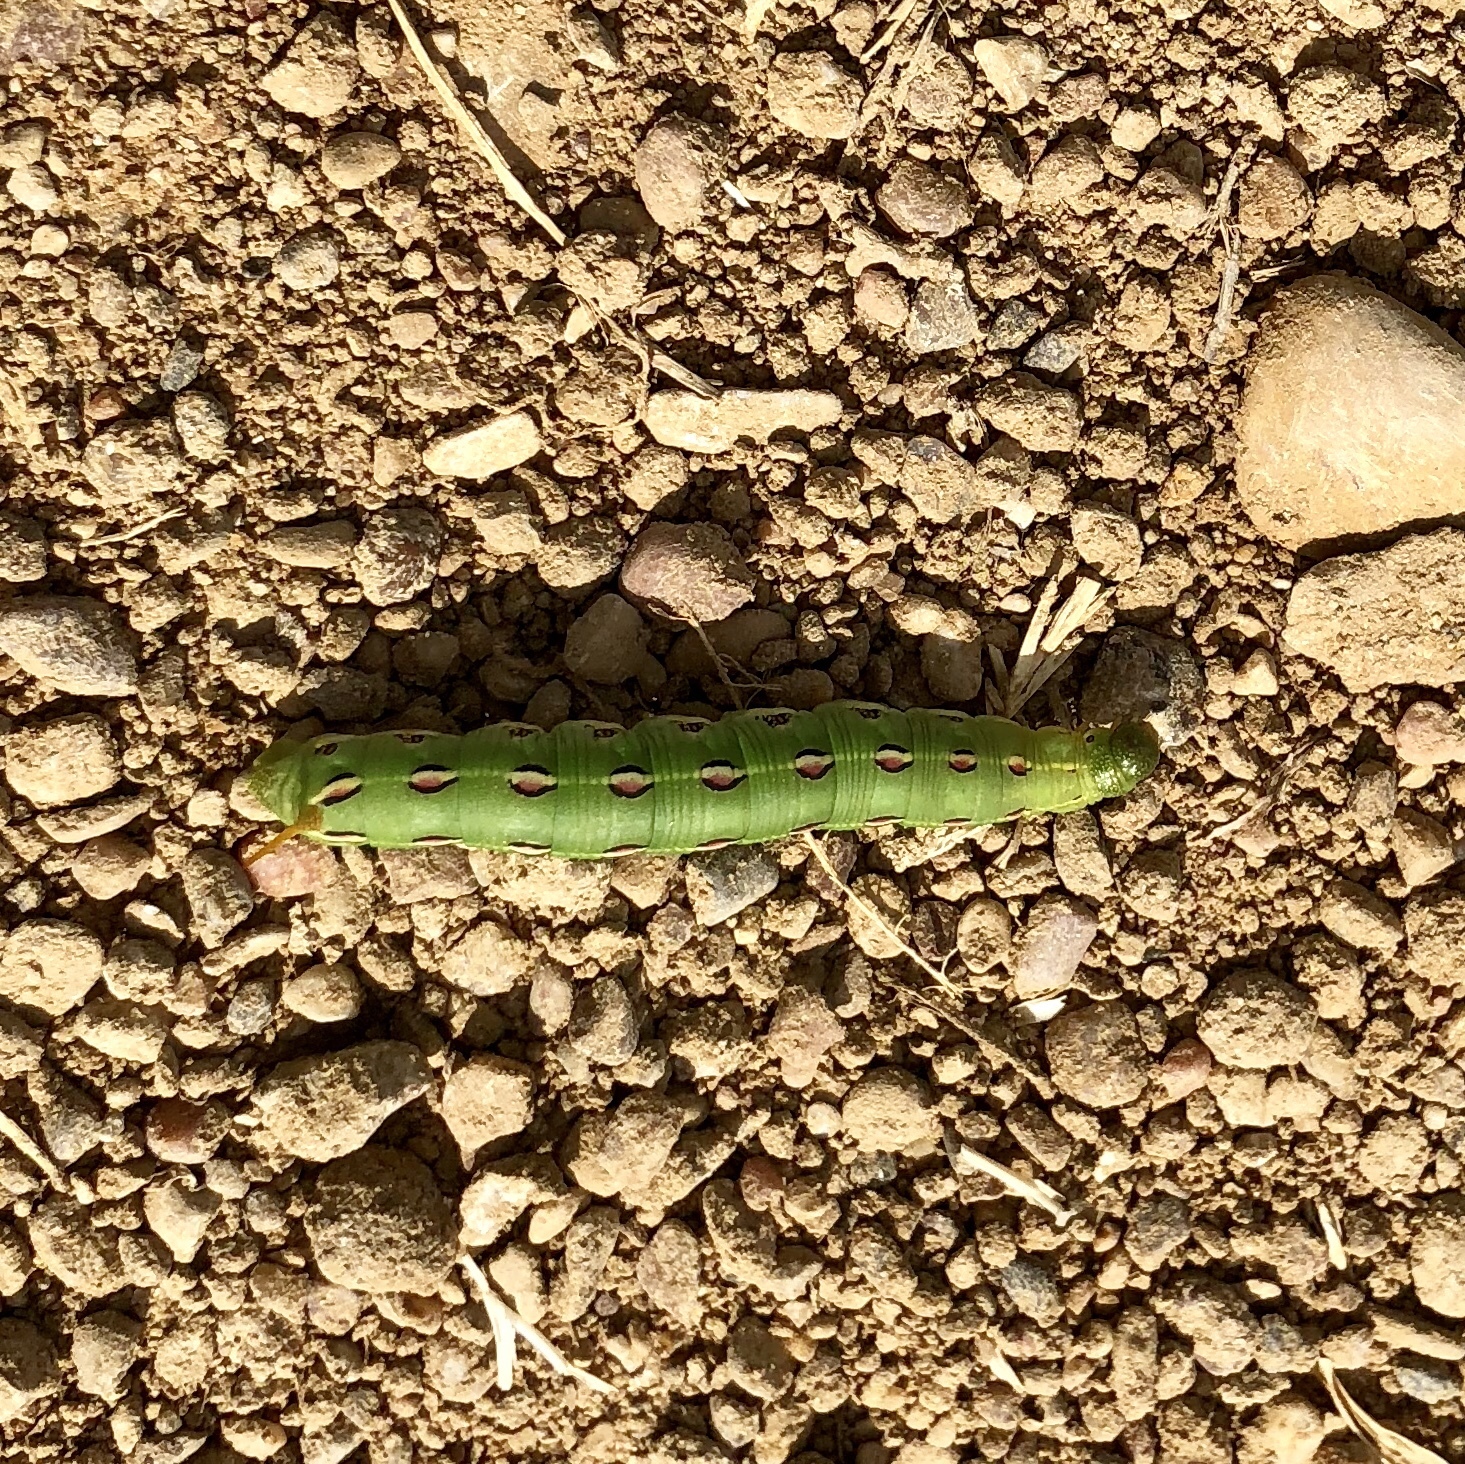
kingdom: Animalia
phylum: Arthropoda
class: Insecta
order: Lepidoptera
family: Sphingidae
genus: Hyles
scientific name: Hyles lineata
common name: White-lined sphinx
